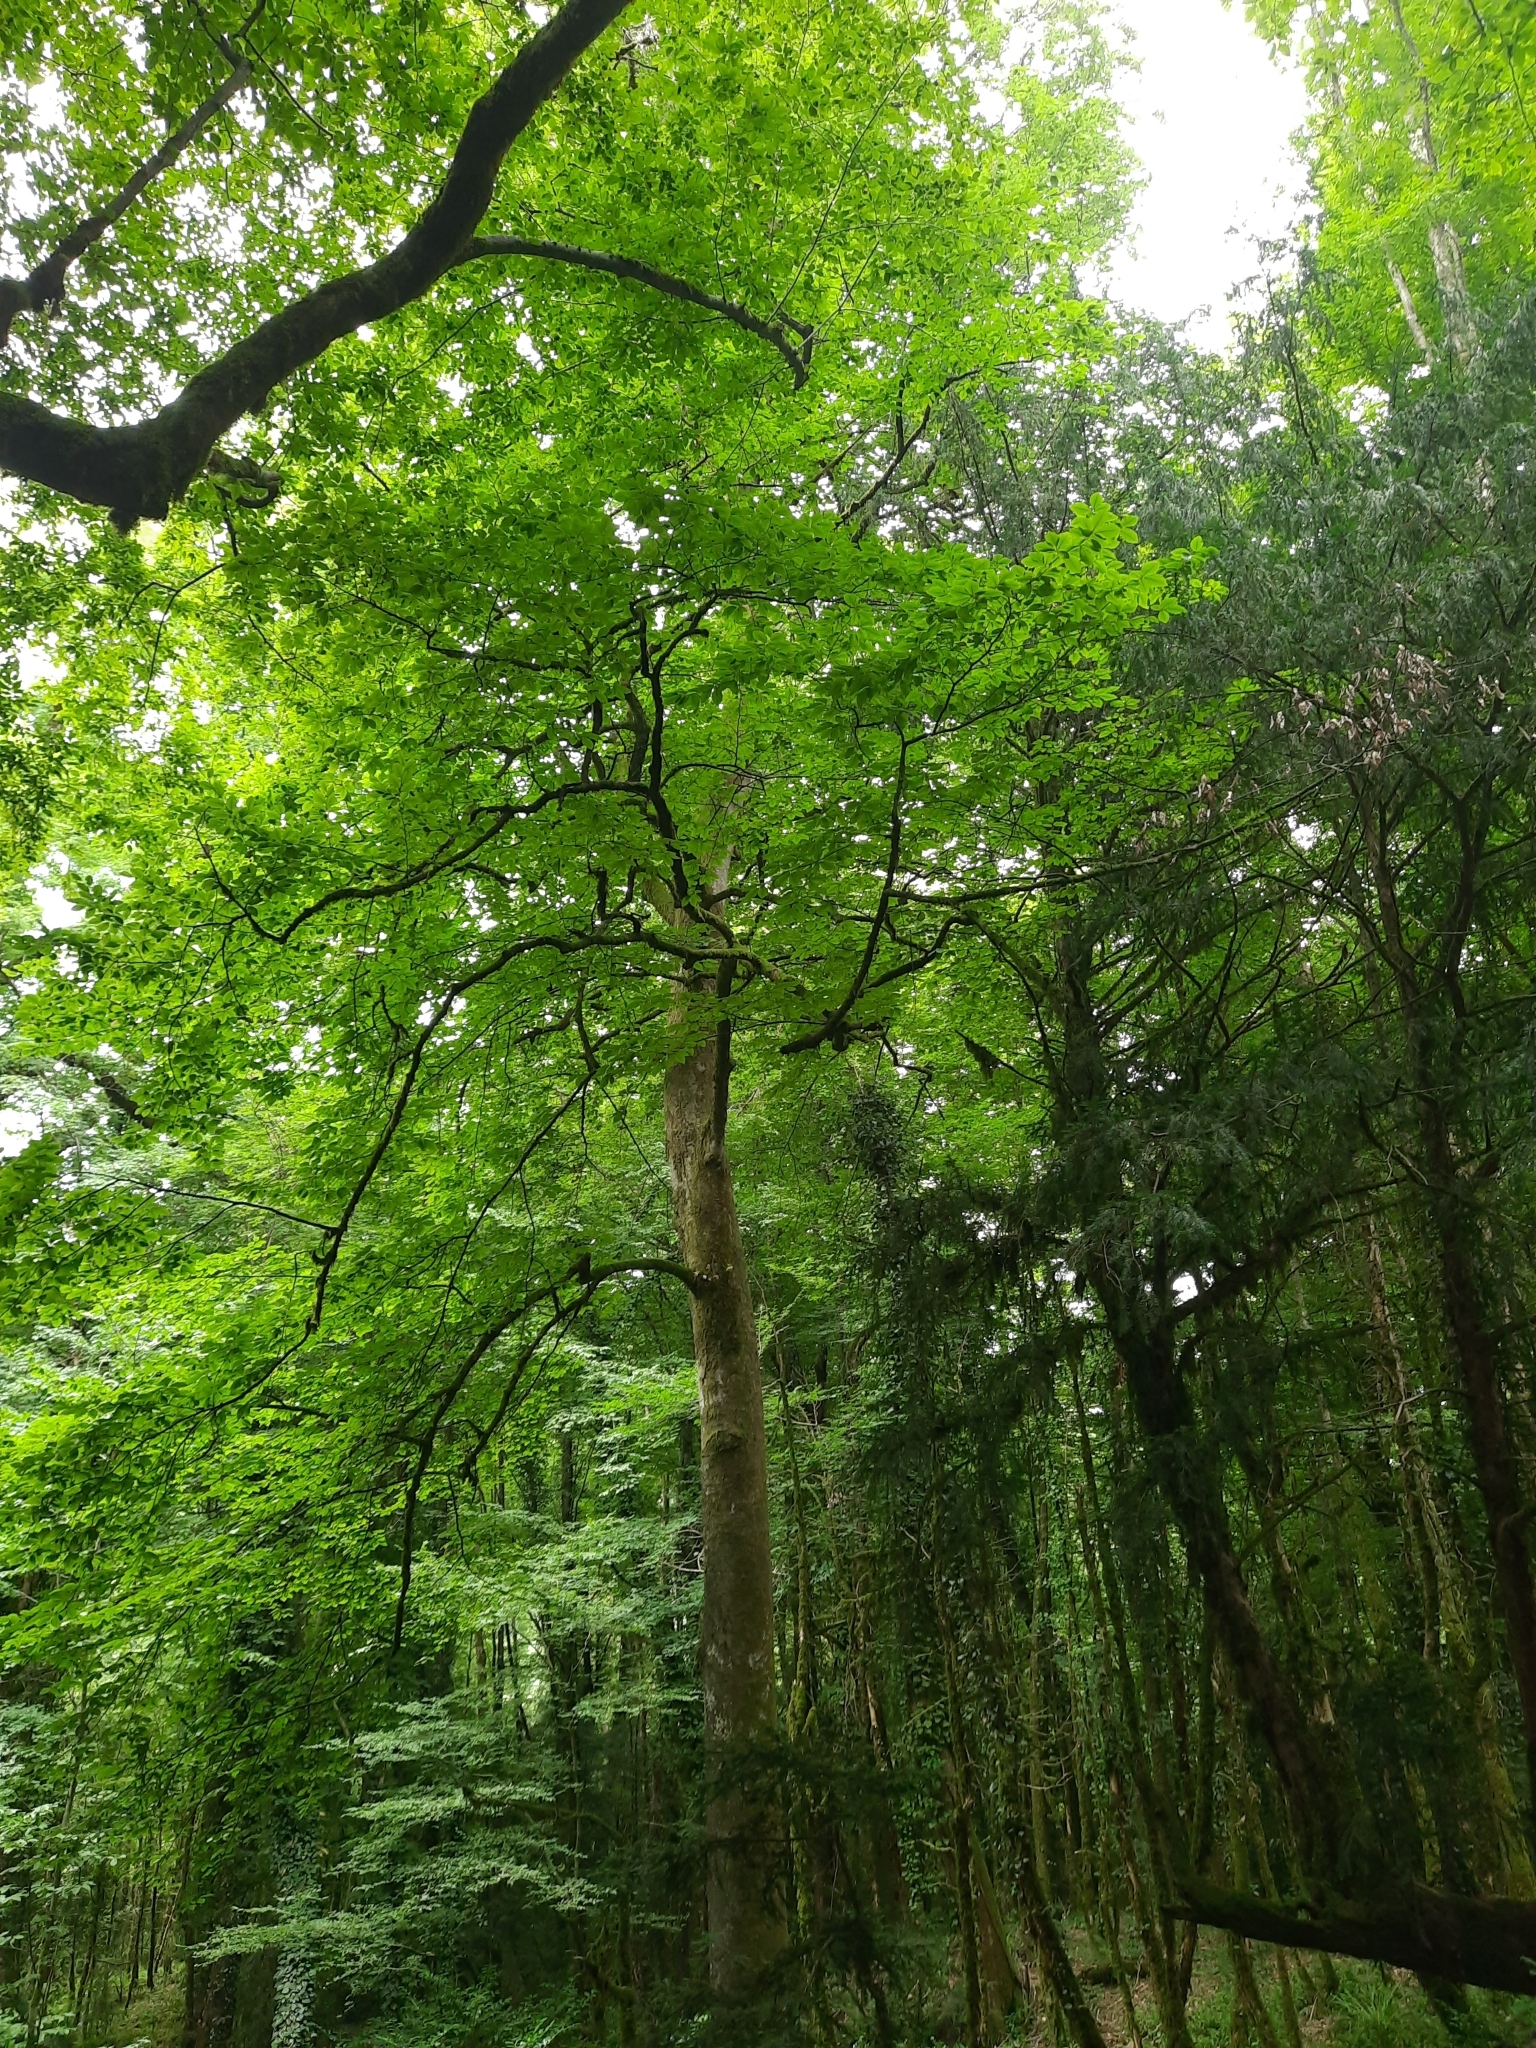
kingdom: Plantae
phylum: Tracheophyta
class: Magnoliopsida
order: Fagales
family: Fagaceae
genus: Fagus
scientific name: Fagus orientalis
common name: Oriental beech
